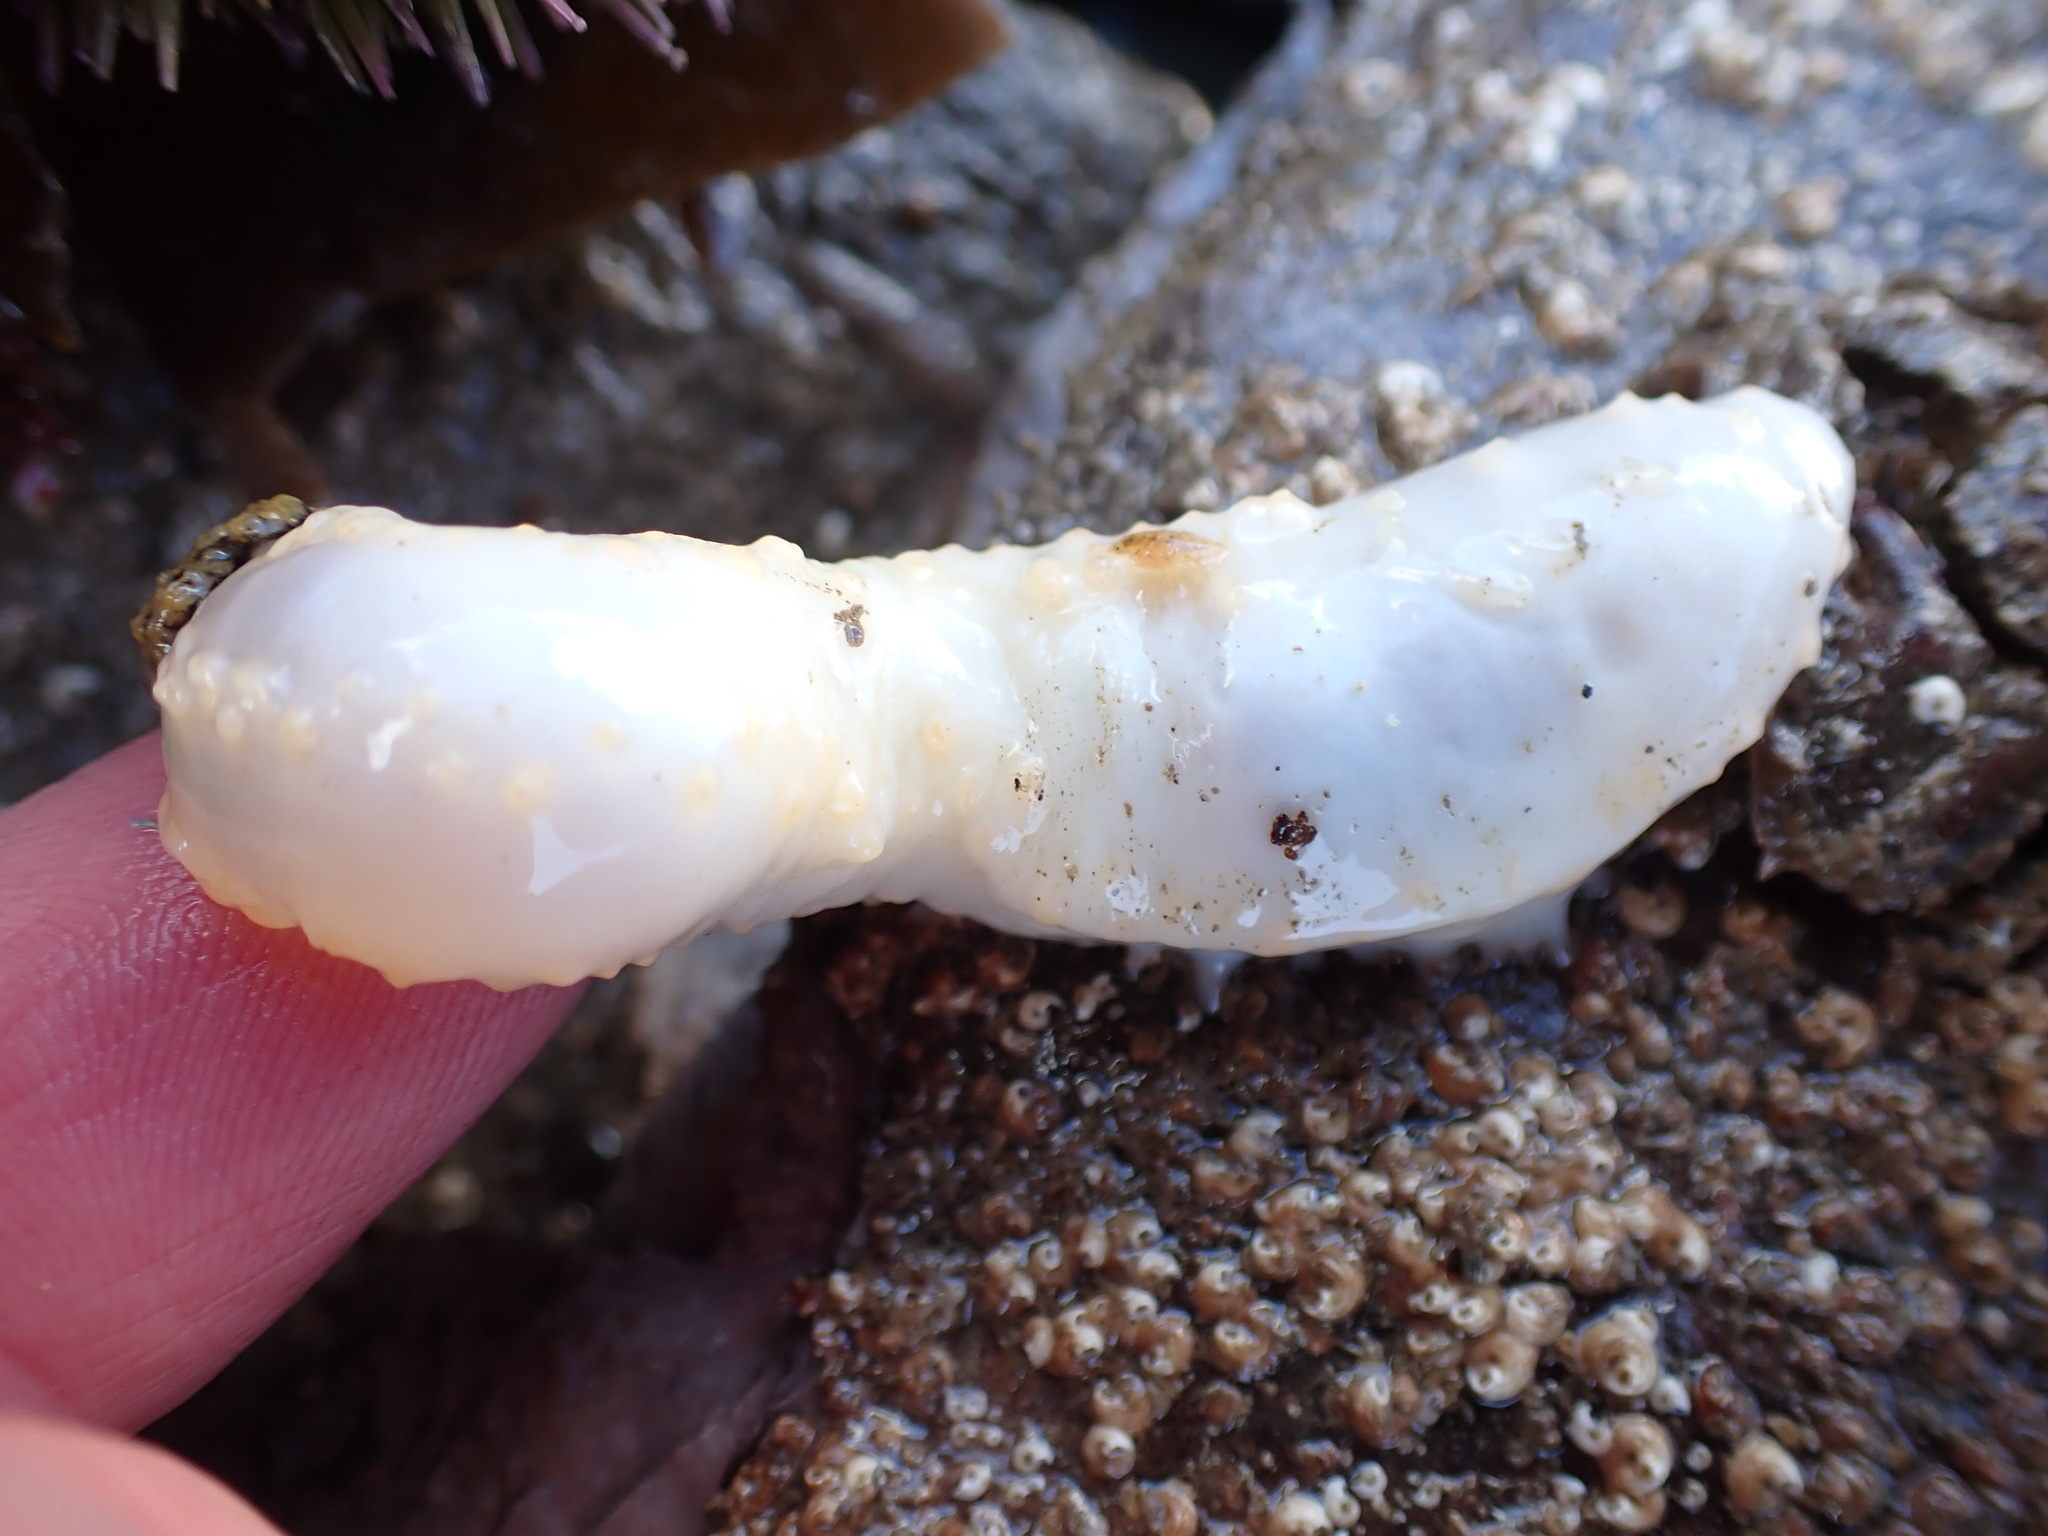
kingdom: Animalia
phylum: Echinodermata
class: Holothuroidea
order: Dendrochirotida
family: Cucumariidae
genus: Pawsonia
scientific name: Pawsonia saxicola
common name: Sea gherkin
